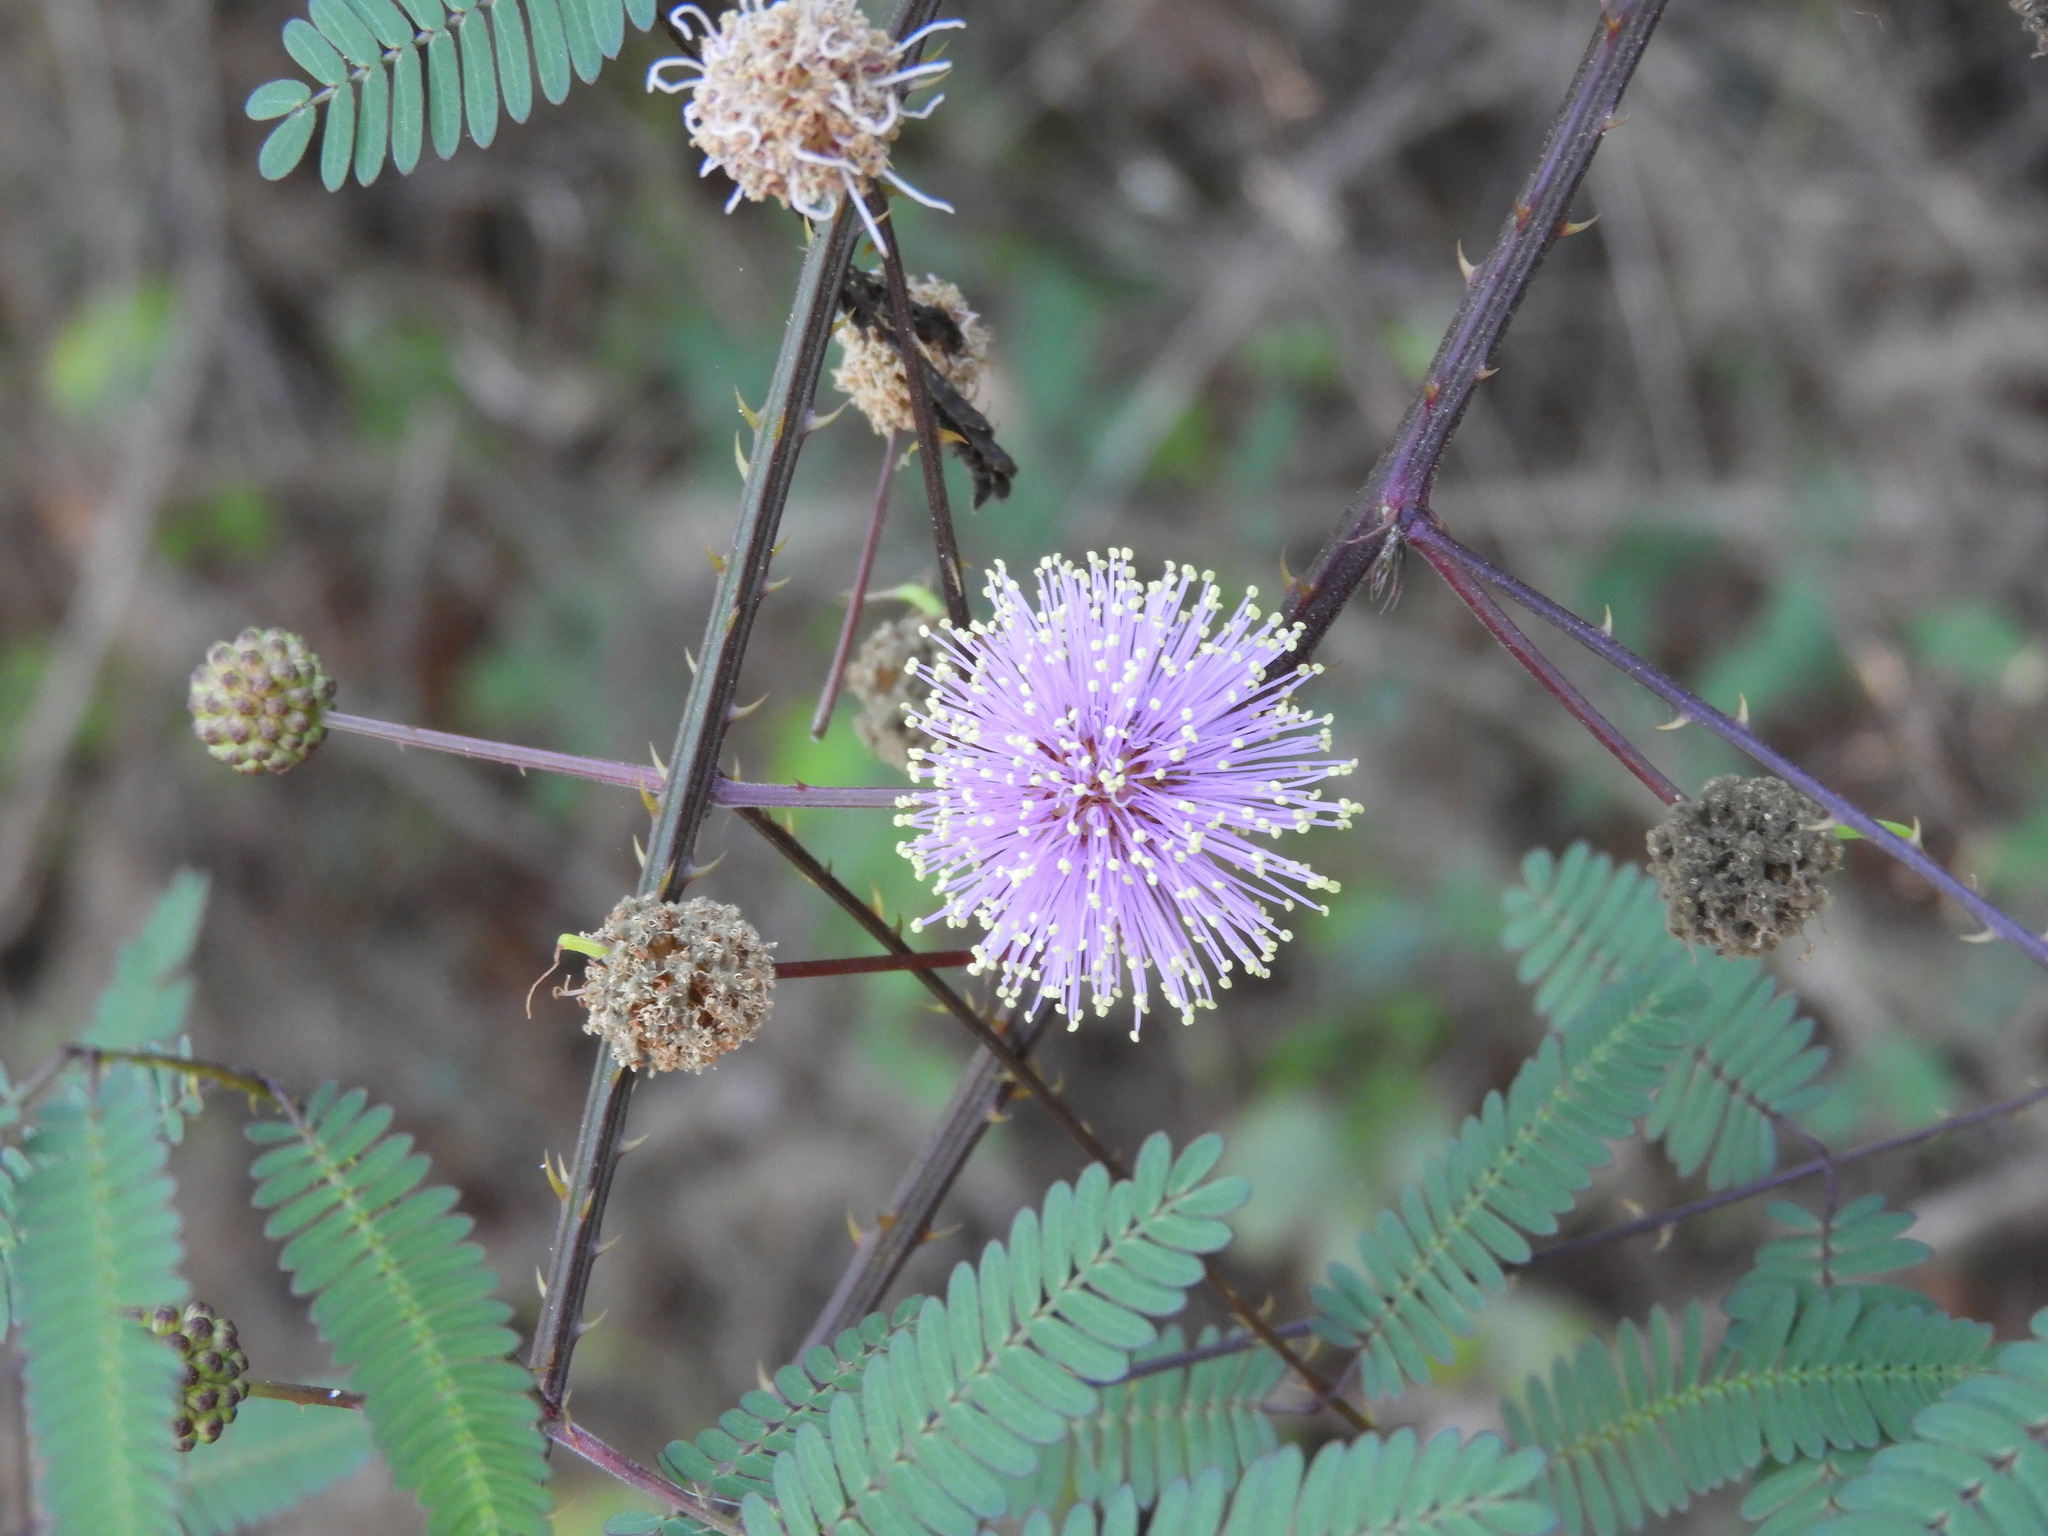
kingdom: Plantae
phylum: Tracheophyta
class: Magnoliopsida
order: Fabales
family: Fabaceae
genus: Mimosa
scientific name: Mimosa quadrivalvis
